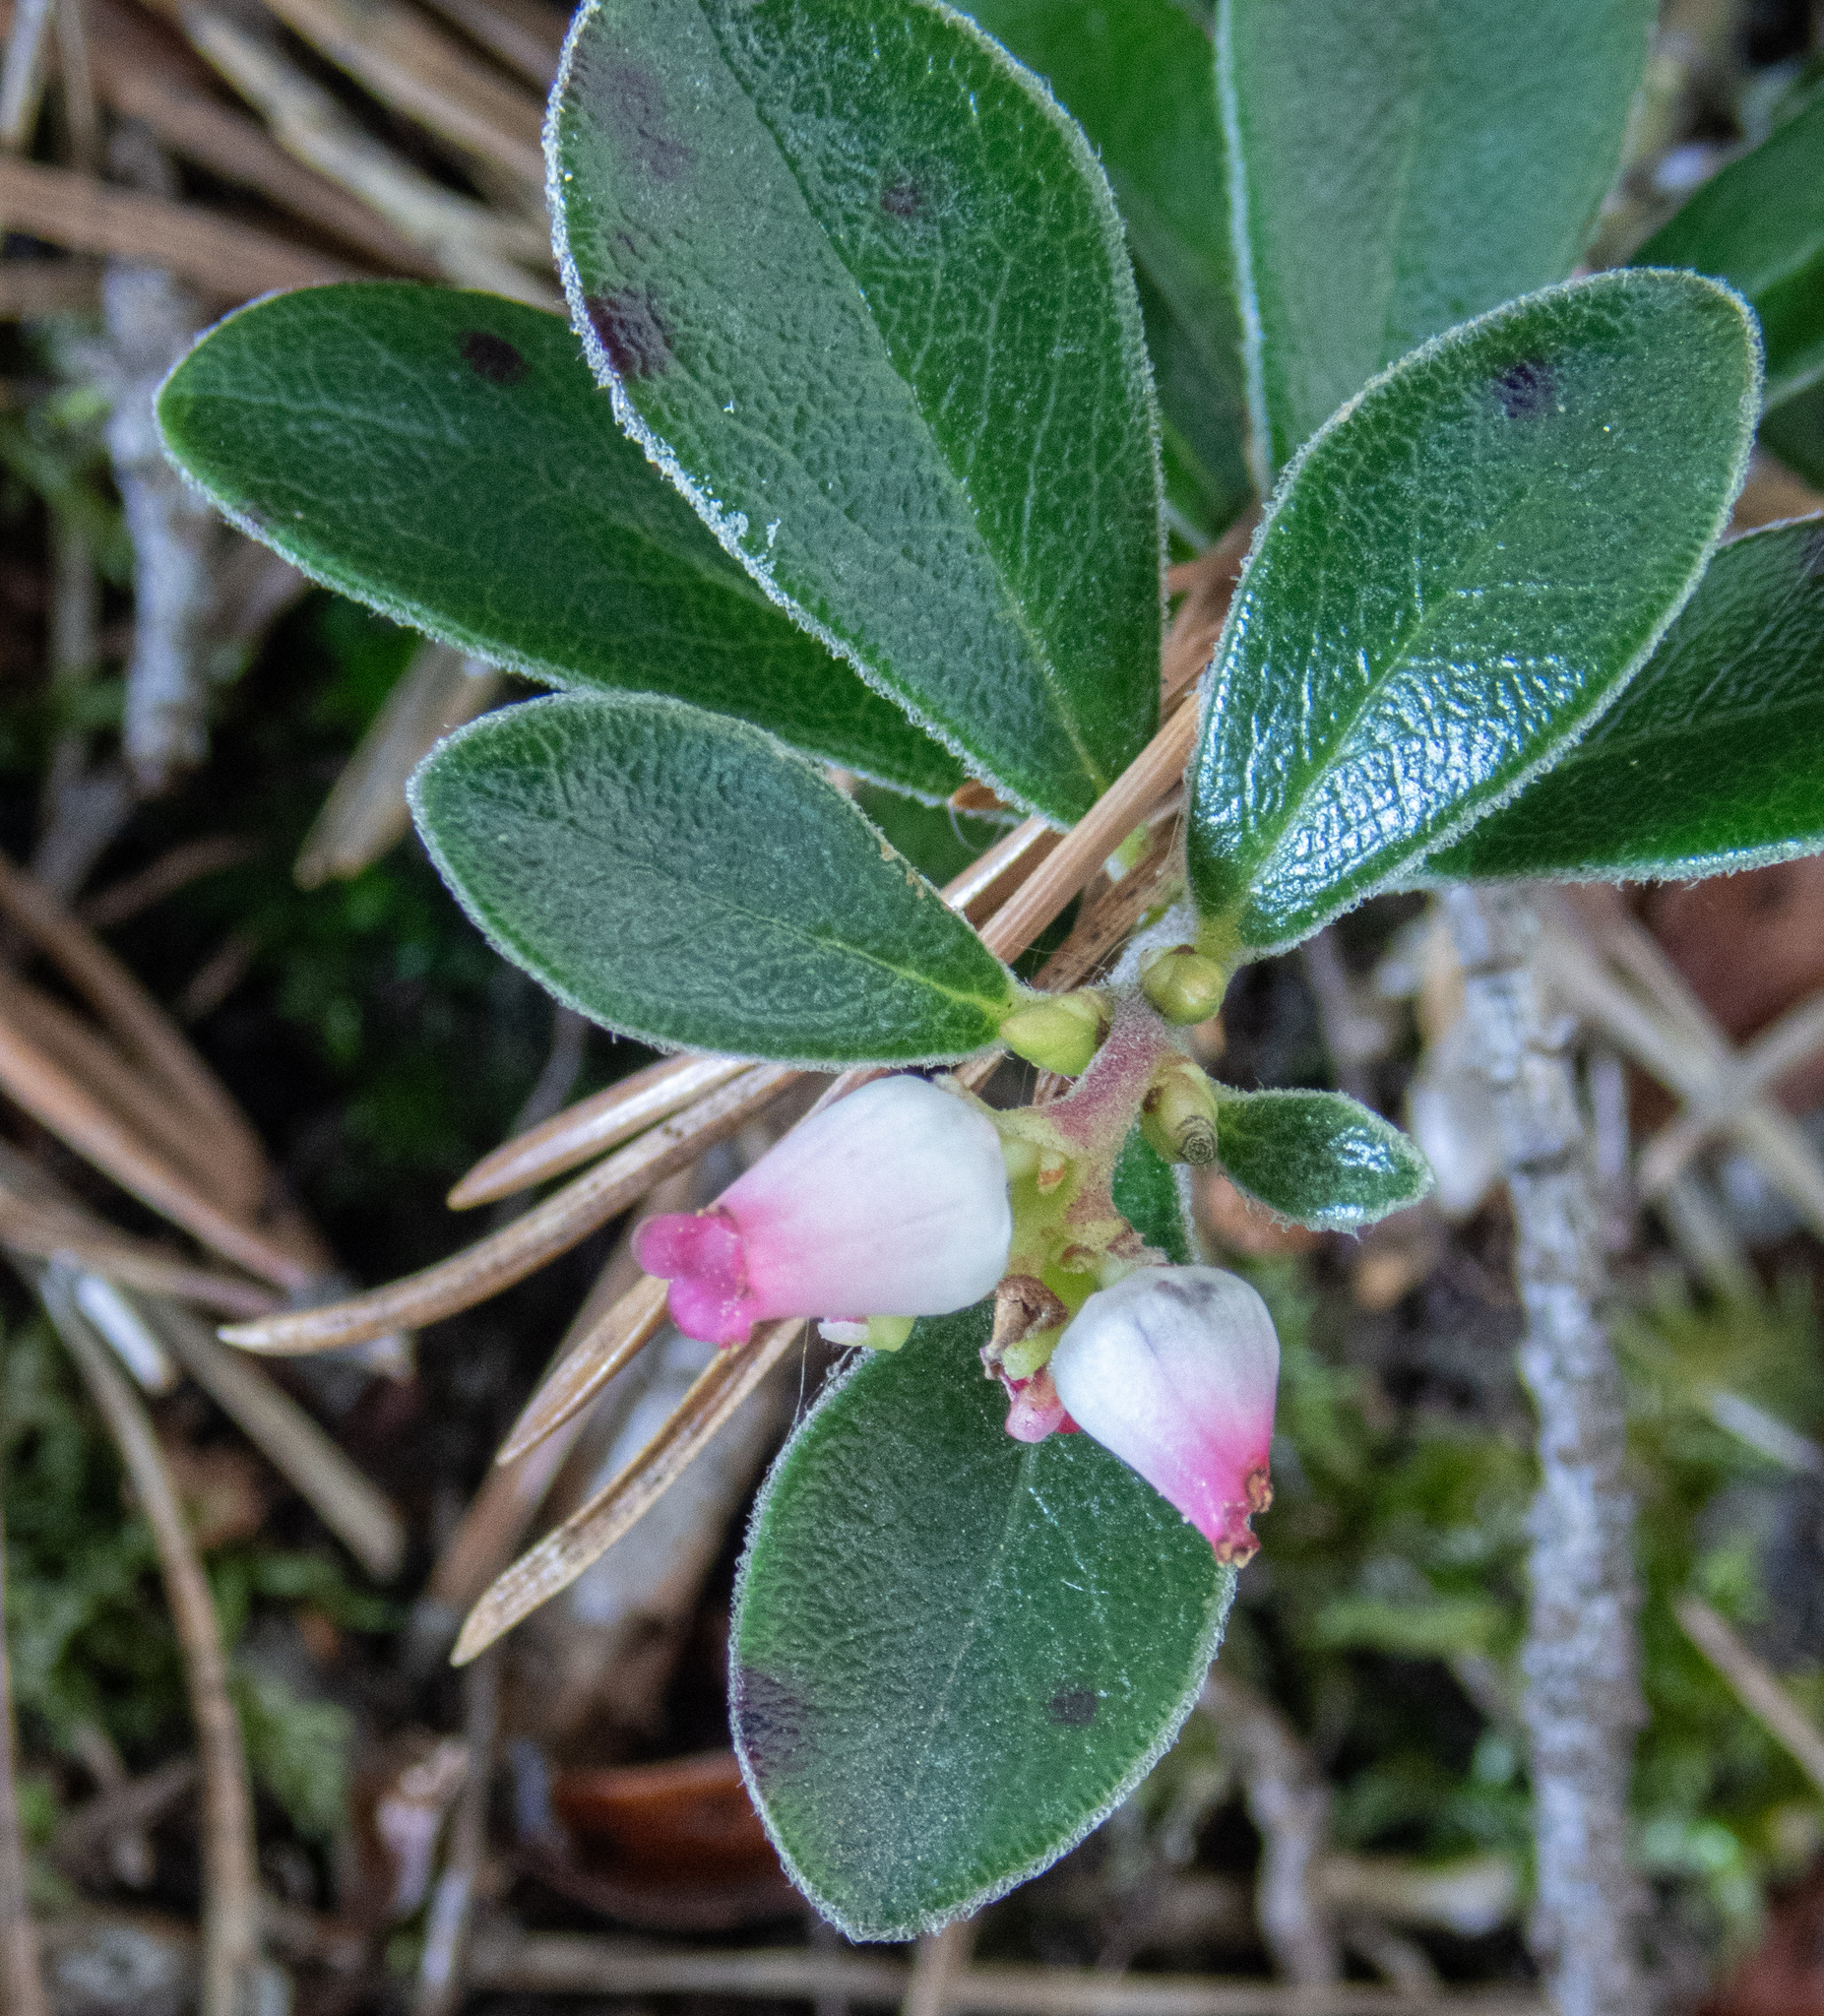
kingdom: Plantae
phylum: Tracheophyta
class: Magnoliopsida
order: Ericales
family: Ericaceae
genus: Arctostaphylos
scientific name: Arctostaphylos uva-ursi
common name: Bearberry
